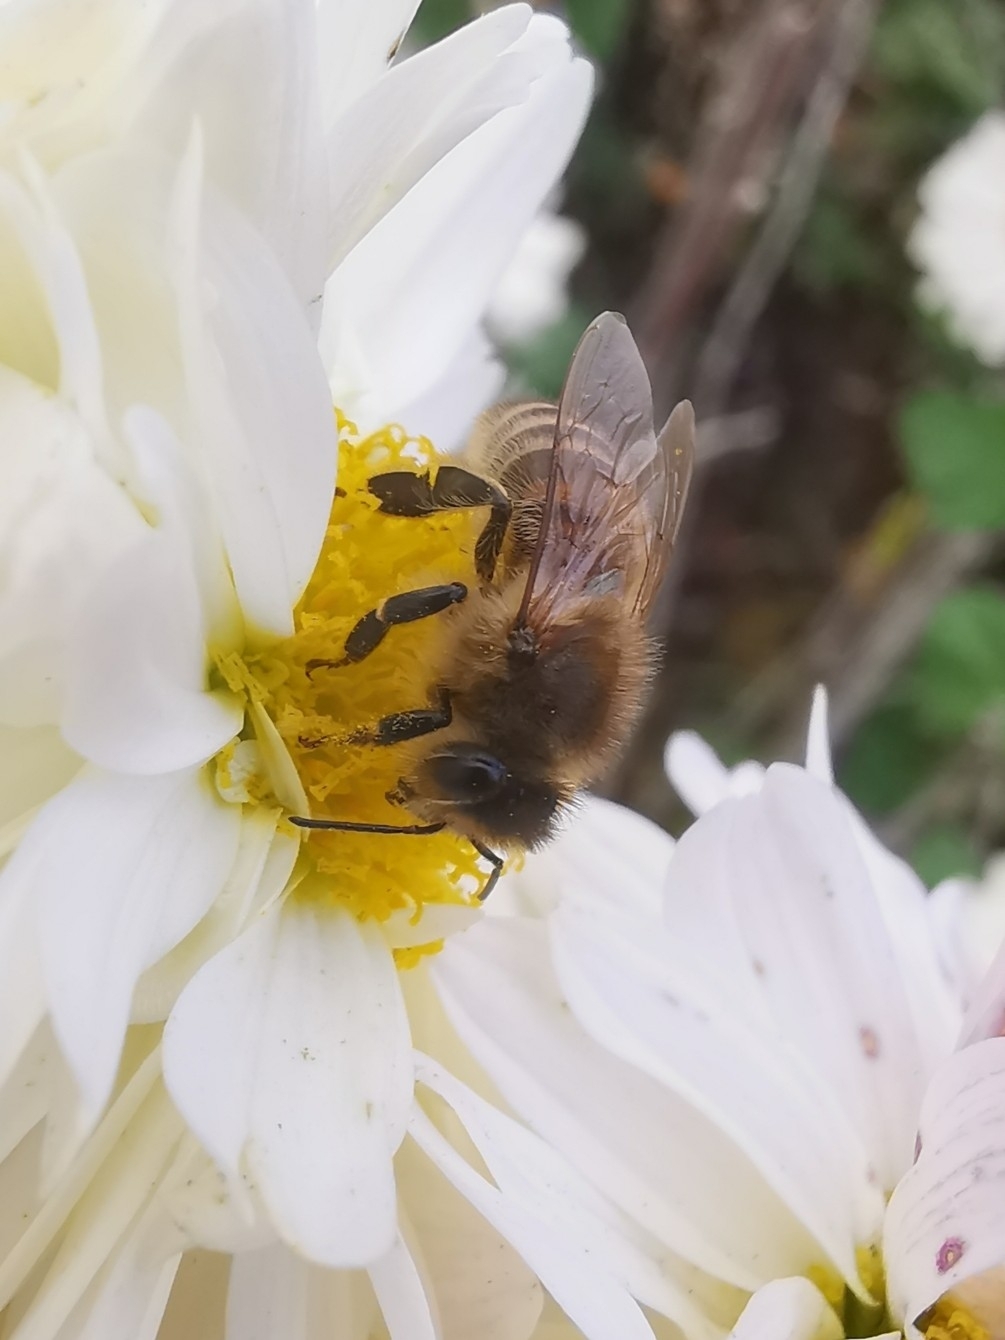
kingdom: Animalia
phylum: Arthropoda
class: Insecta
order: Hymenoptera
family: Apidae
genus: Apis
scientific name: Apis mellifera
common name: Honey bee
